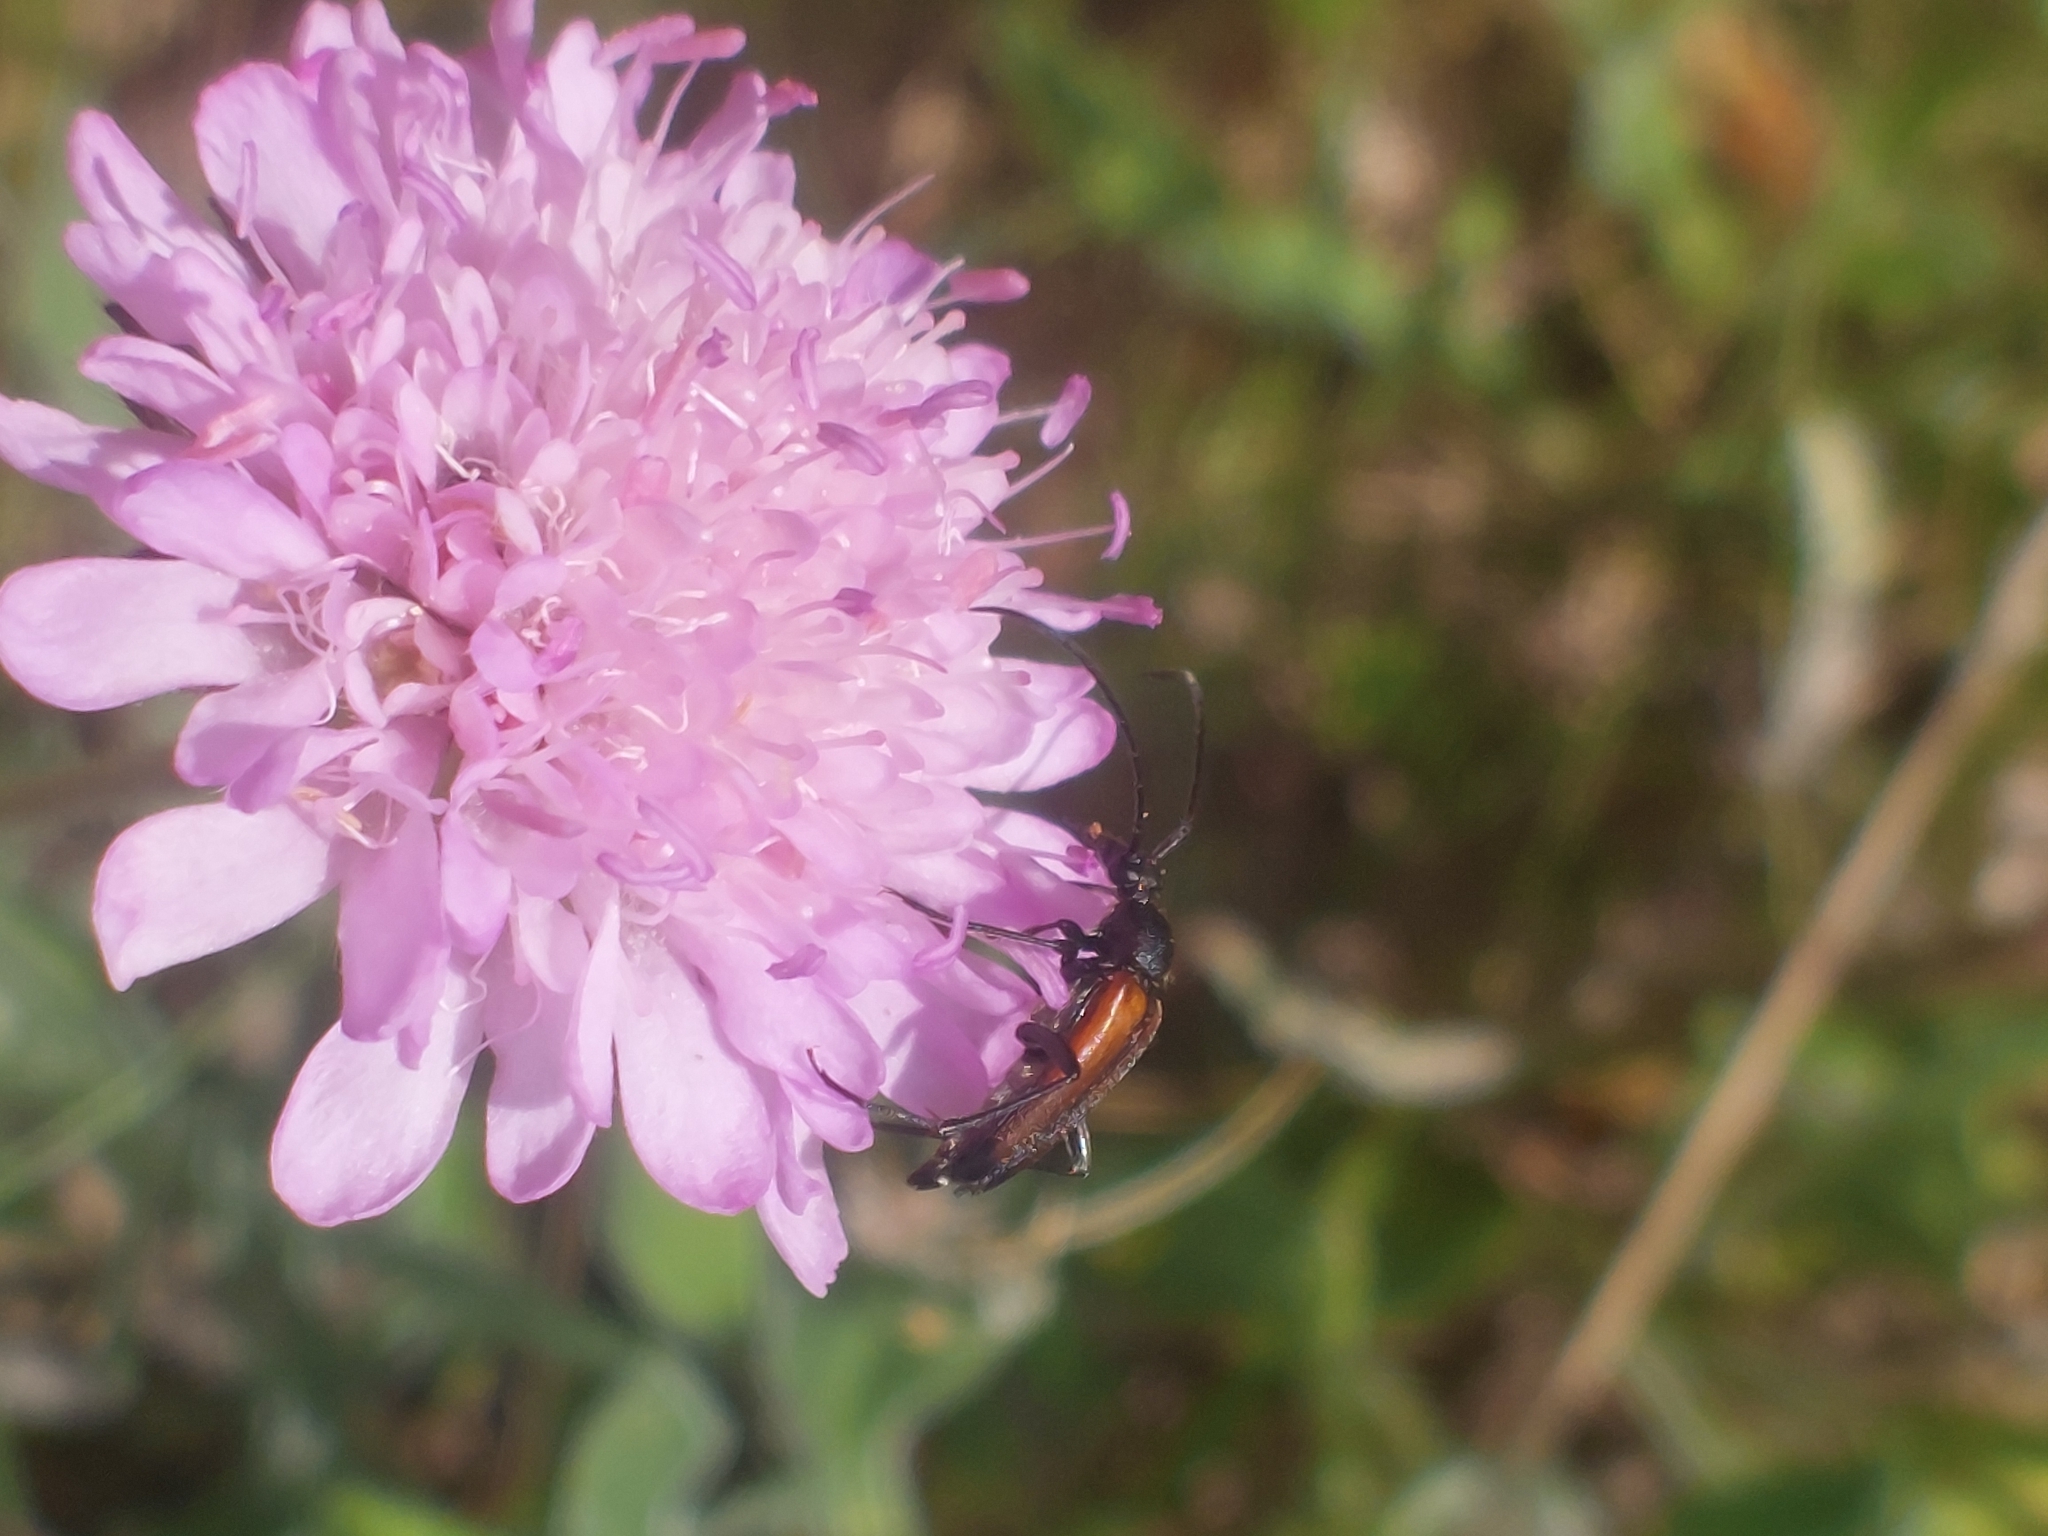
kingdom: Animalia
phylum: Arthropoda
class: Insecta
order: Coleoptera
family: Cerambycidae
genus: Stenurella
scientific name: Stenurella melanura
